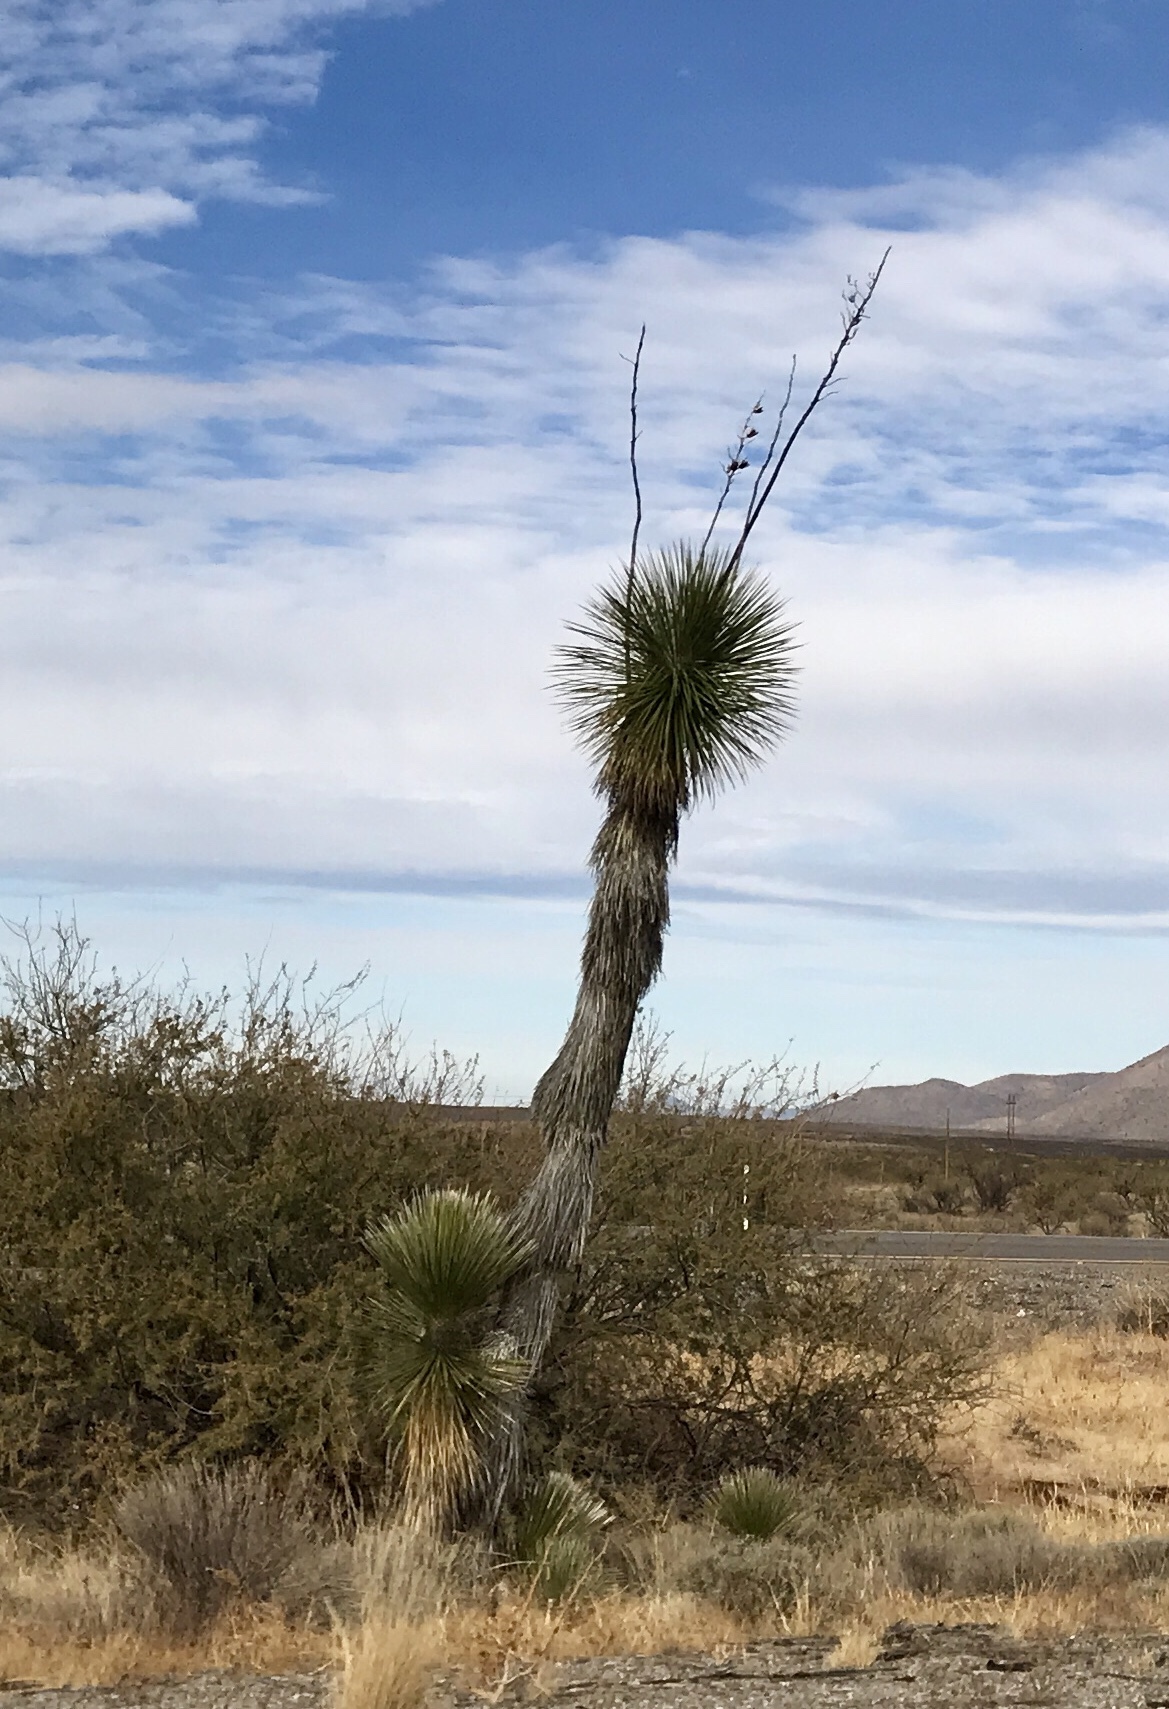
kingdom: Plantae
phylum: Tracheophyta
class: Liliopsida
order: Asparagales
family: Asparagaceae
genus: Yucca
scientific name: Yucca elata
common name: Palmella
